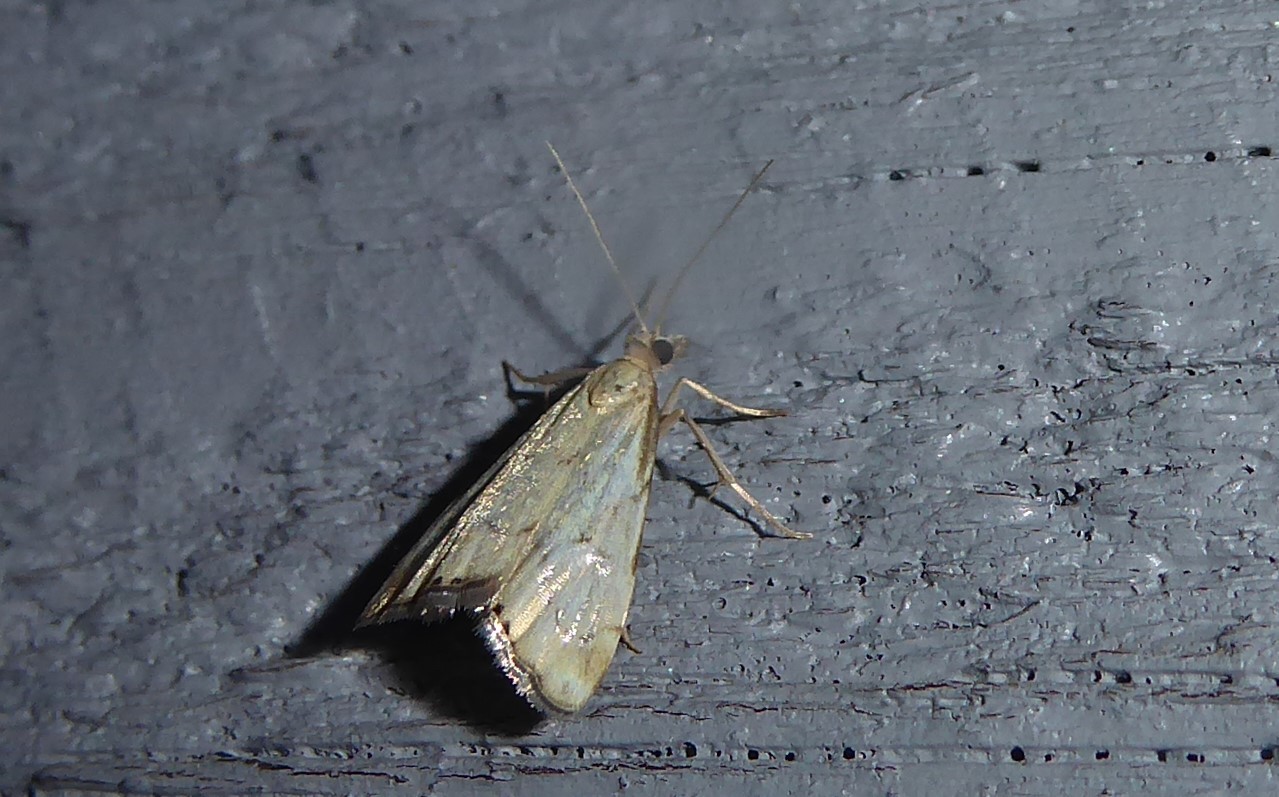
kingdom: Animalia
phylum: Arthropoda
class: Insecta
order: Lepidoptera
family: Crambidae
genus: Glaucocharis
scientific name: Glaucocharis lepidella
